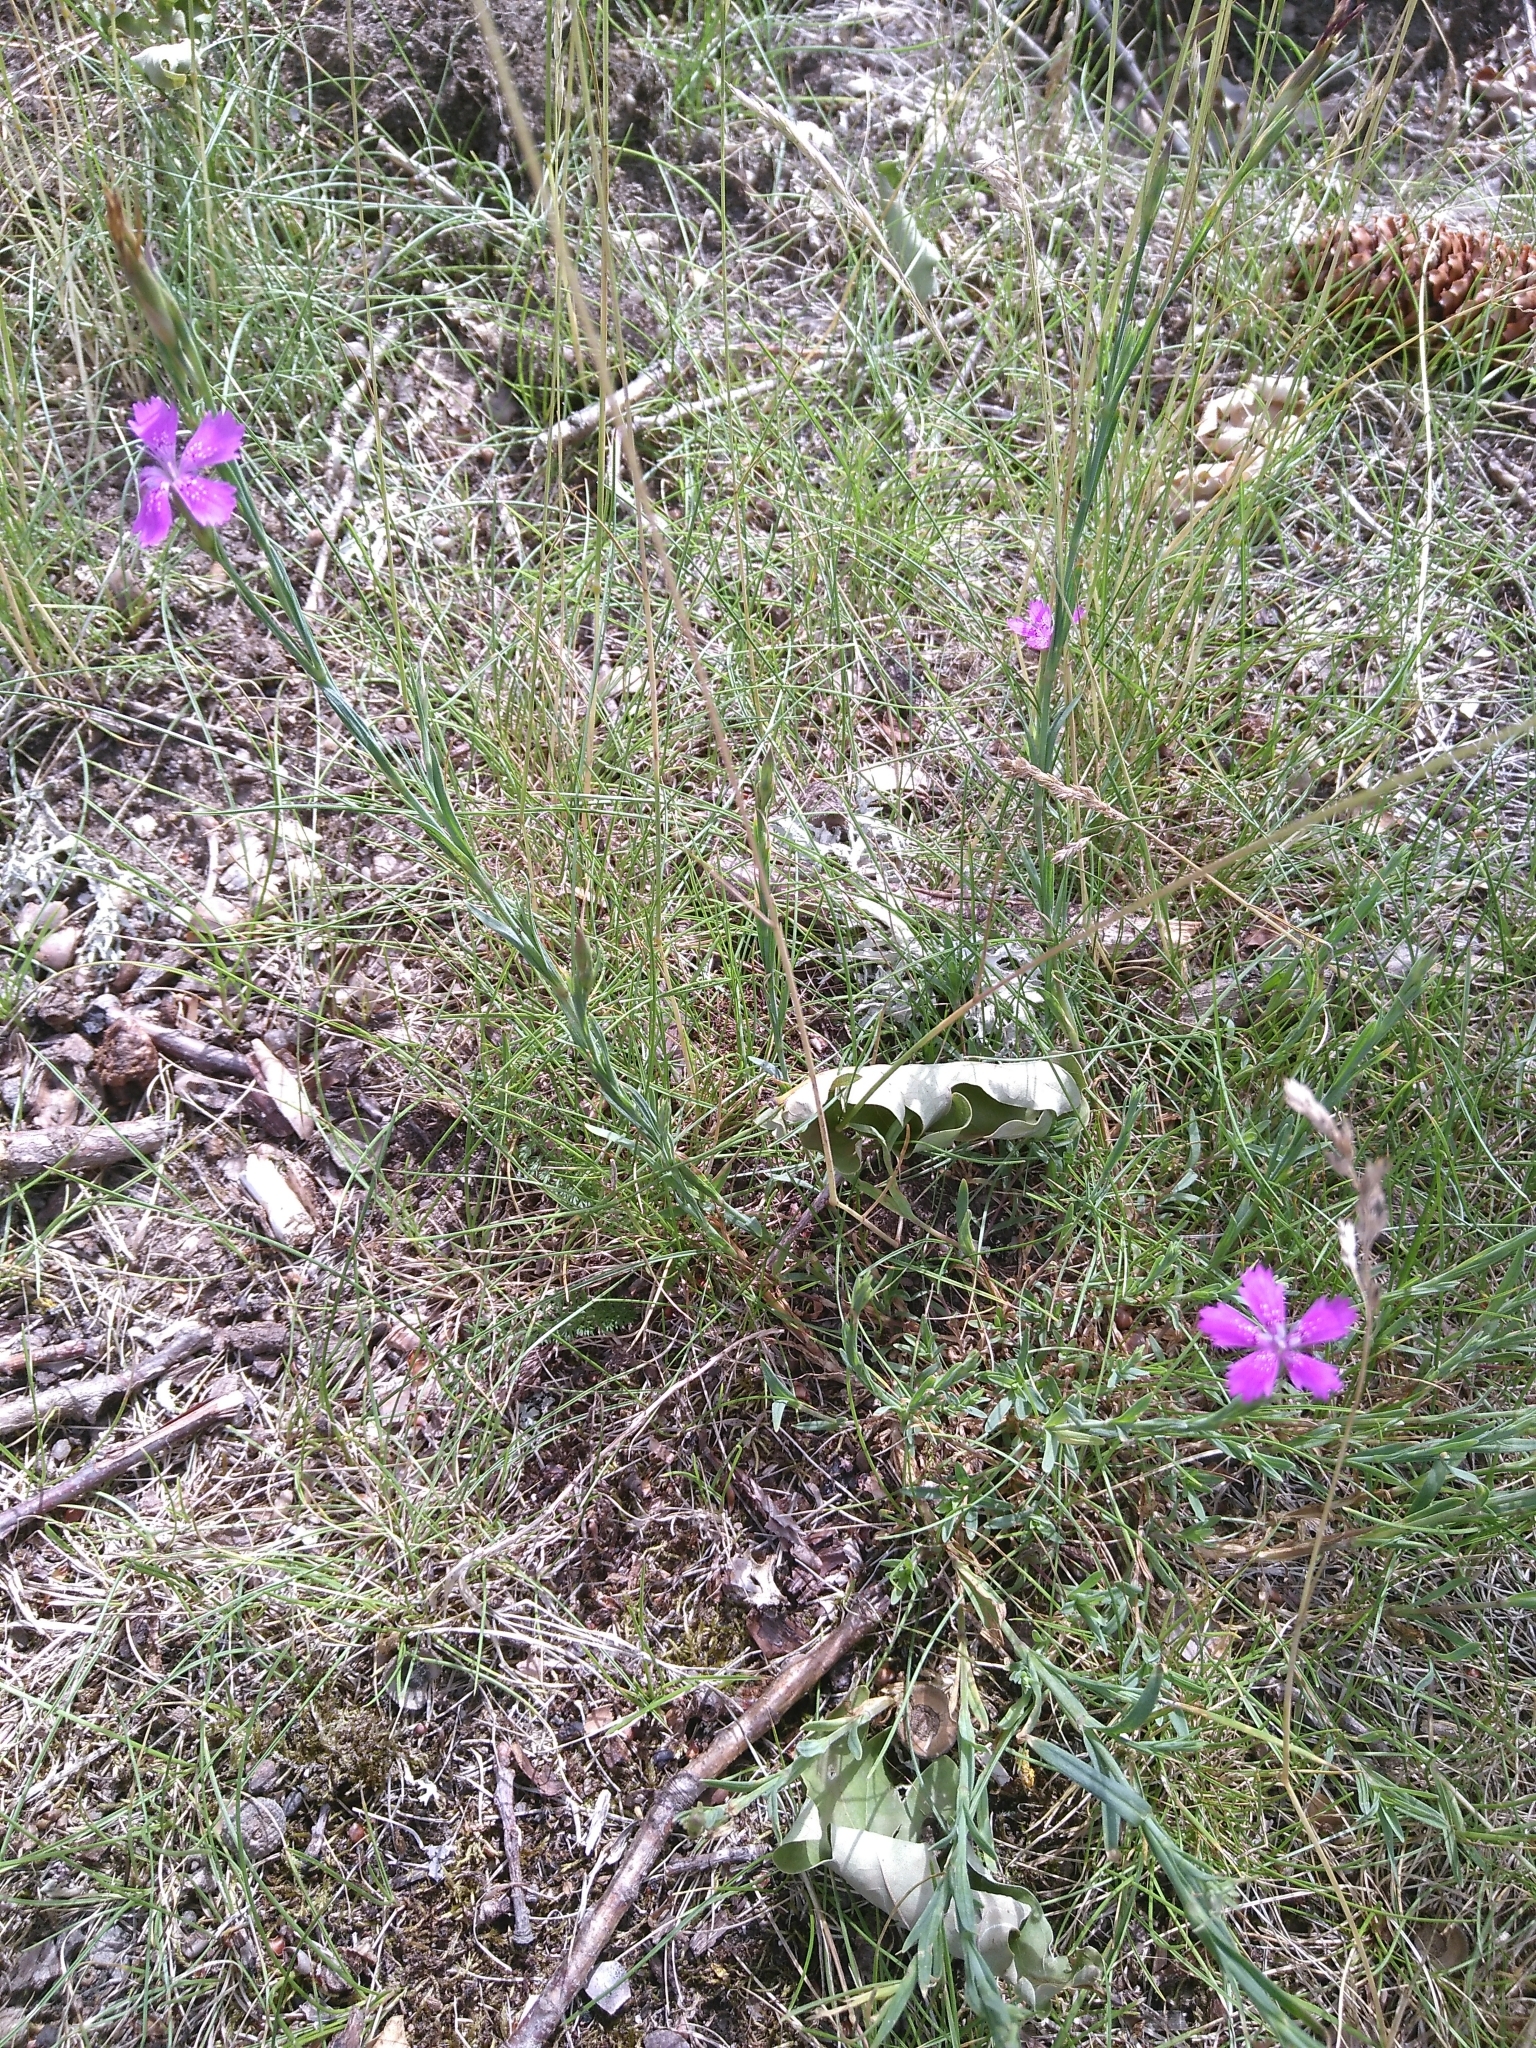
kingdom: Plantae
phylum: Tracheophyta
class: Magnoliopsida
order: Caryophyllales
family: Caryophyllaceae
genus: Dianthus
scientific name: Dianthus deltoides
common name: Maiden pink
